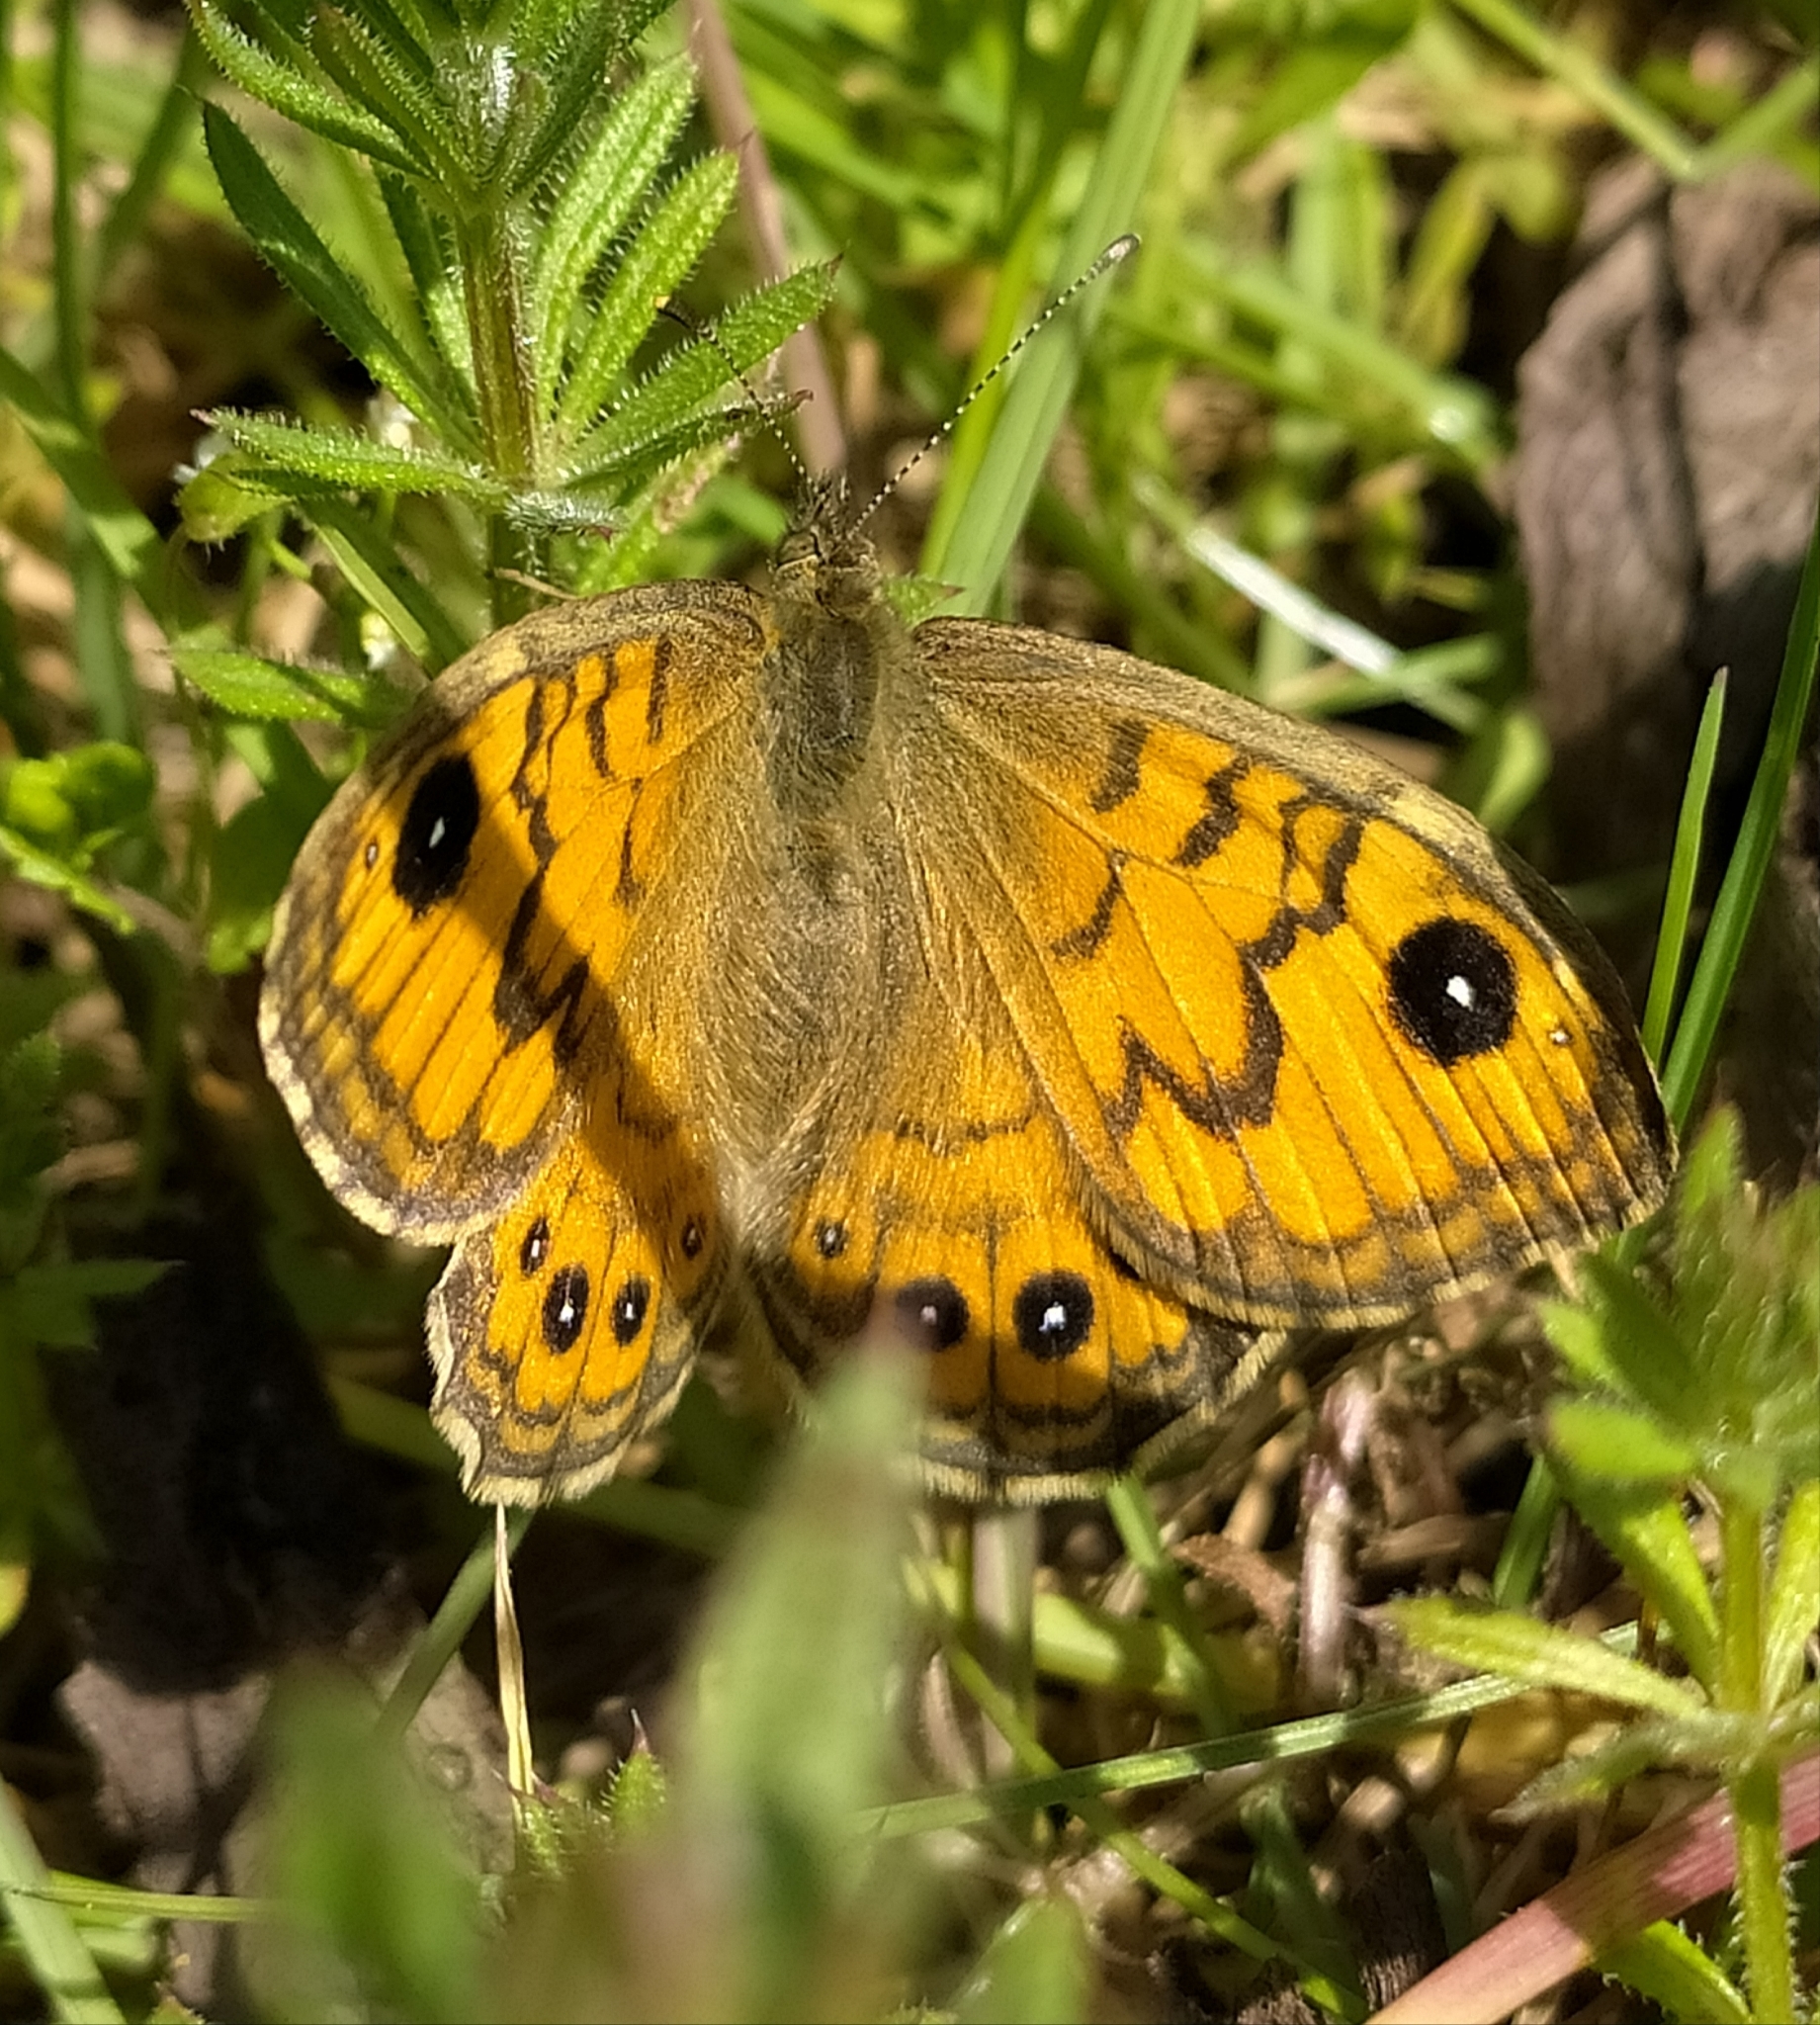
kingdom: Animalia
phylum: Arthropoda
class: Insecta
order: Lepidoptera
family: Nymphalidae
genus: Pararge
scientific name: Pararge Lasiommata megera
